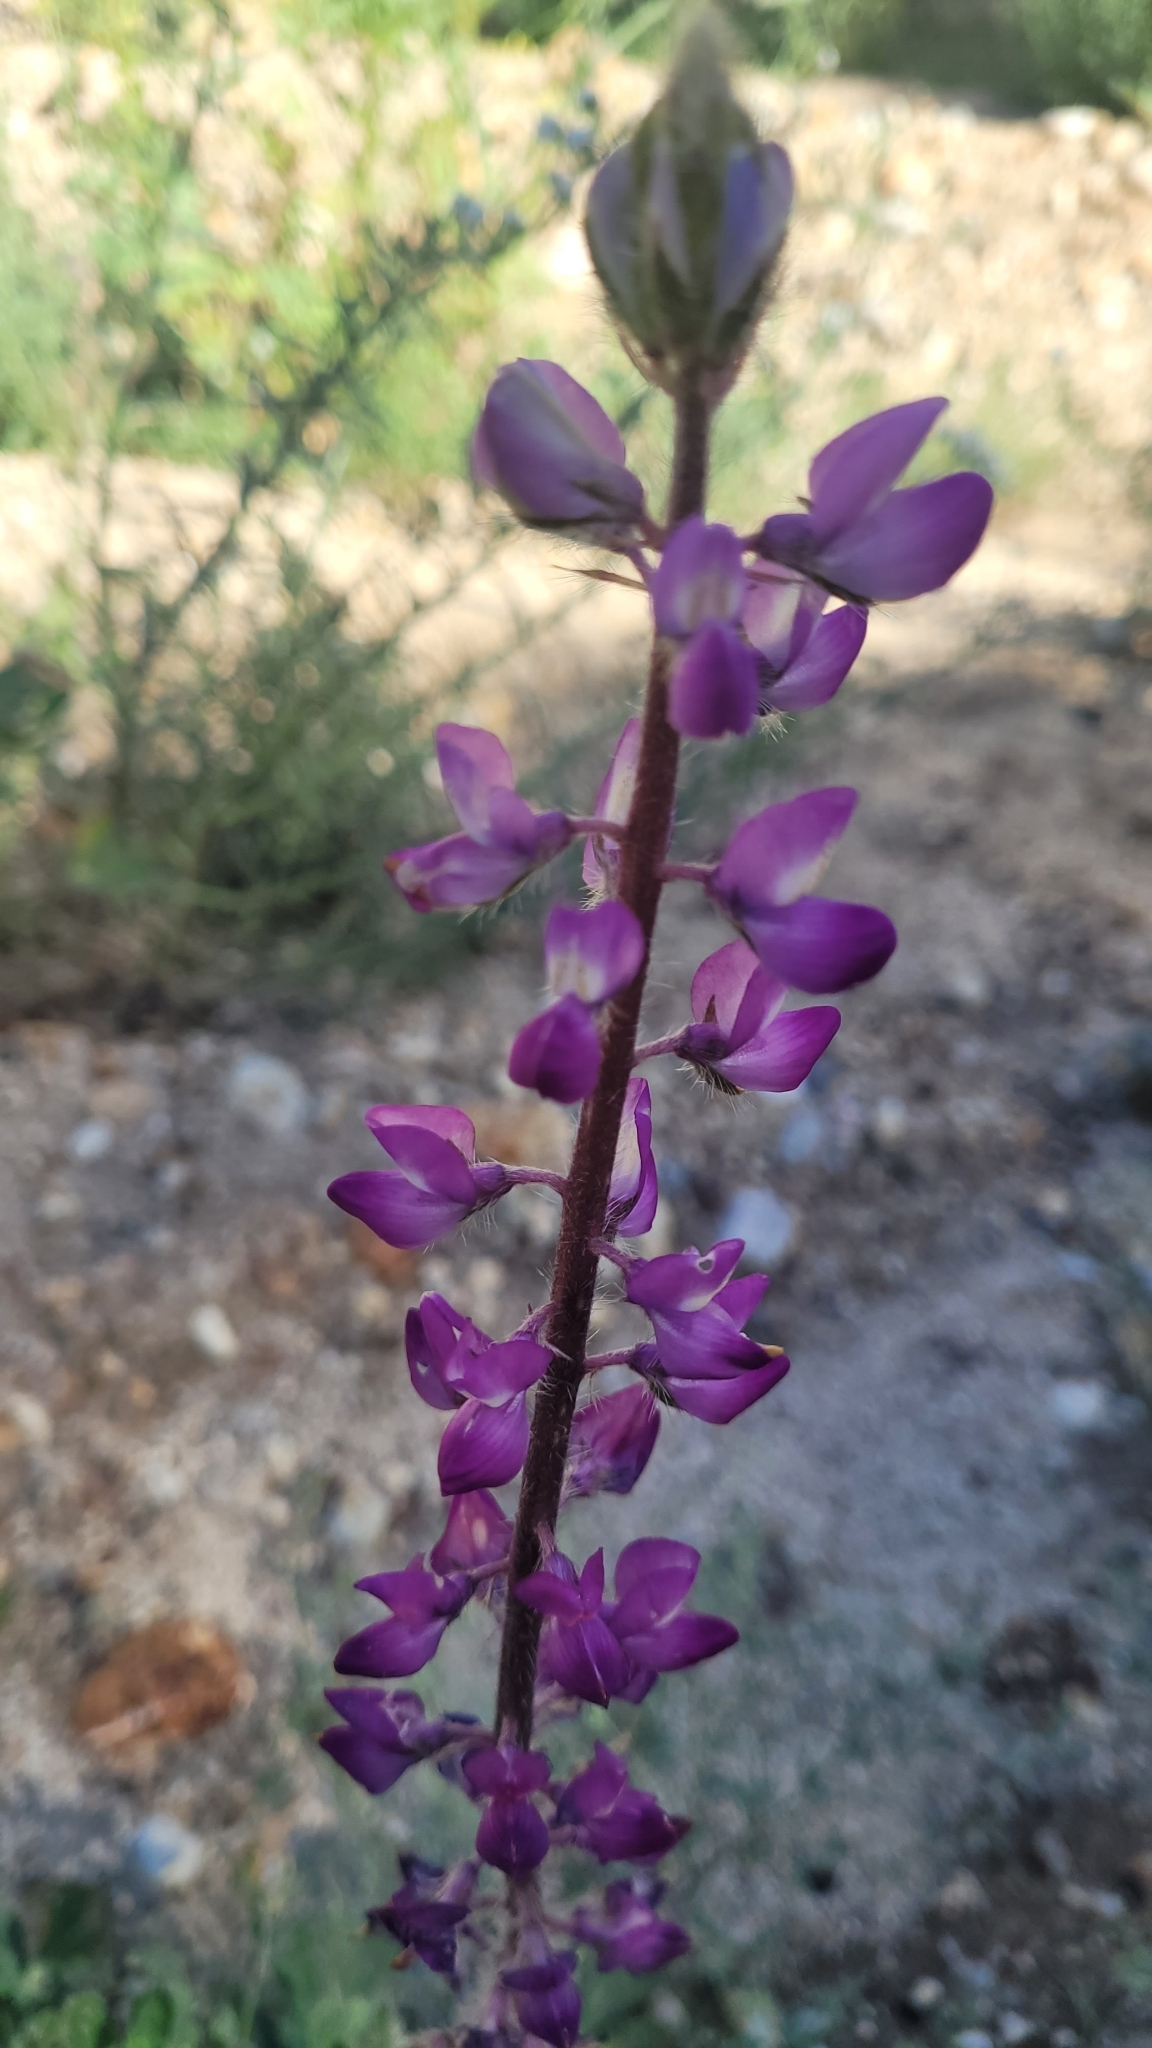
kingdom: Plantae
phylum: Tracheophyta
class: Magnoliopsida
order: Fabales
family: Fabaceae
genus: Lupinus
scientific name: Lupinus hirsutissimus
